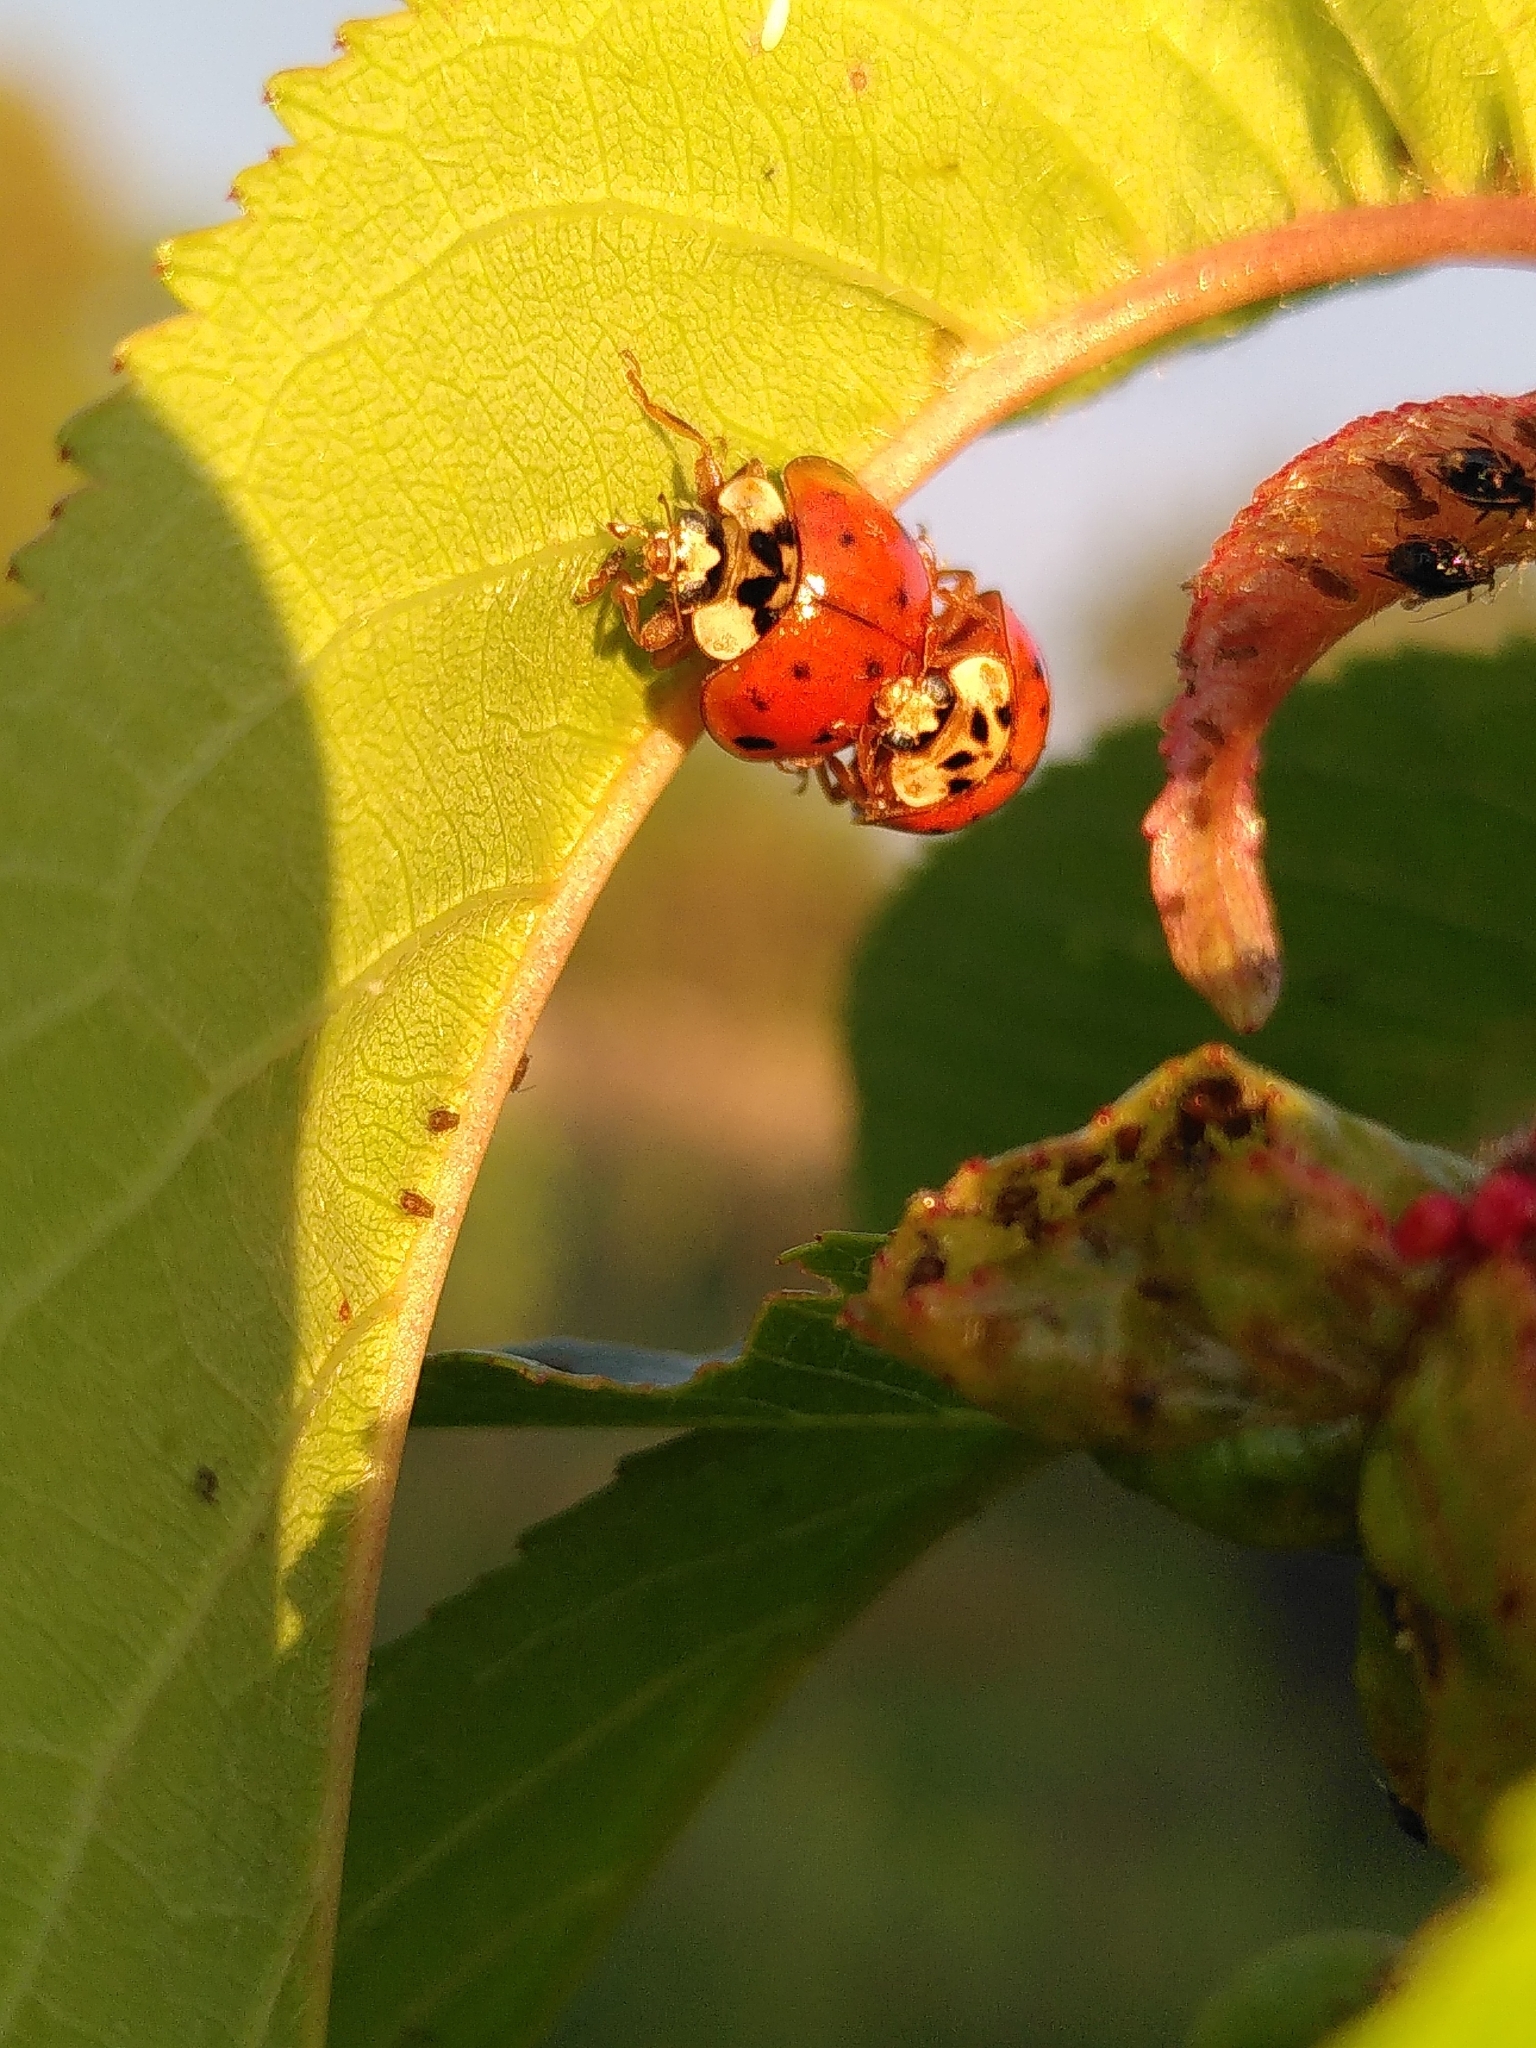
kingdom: Animalia
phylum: Arthropoda
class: Insecta
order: Coleoptera
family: Coccinellidae
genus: Harmonia
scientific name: Harmonia axyridis
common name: Harlequin ladybird
